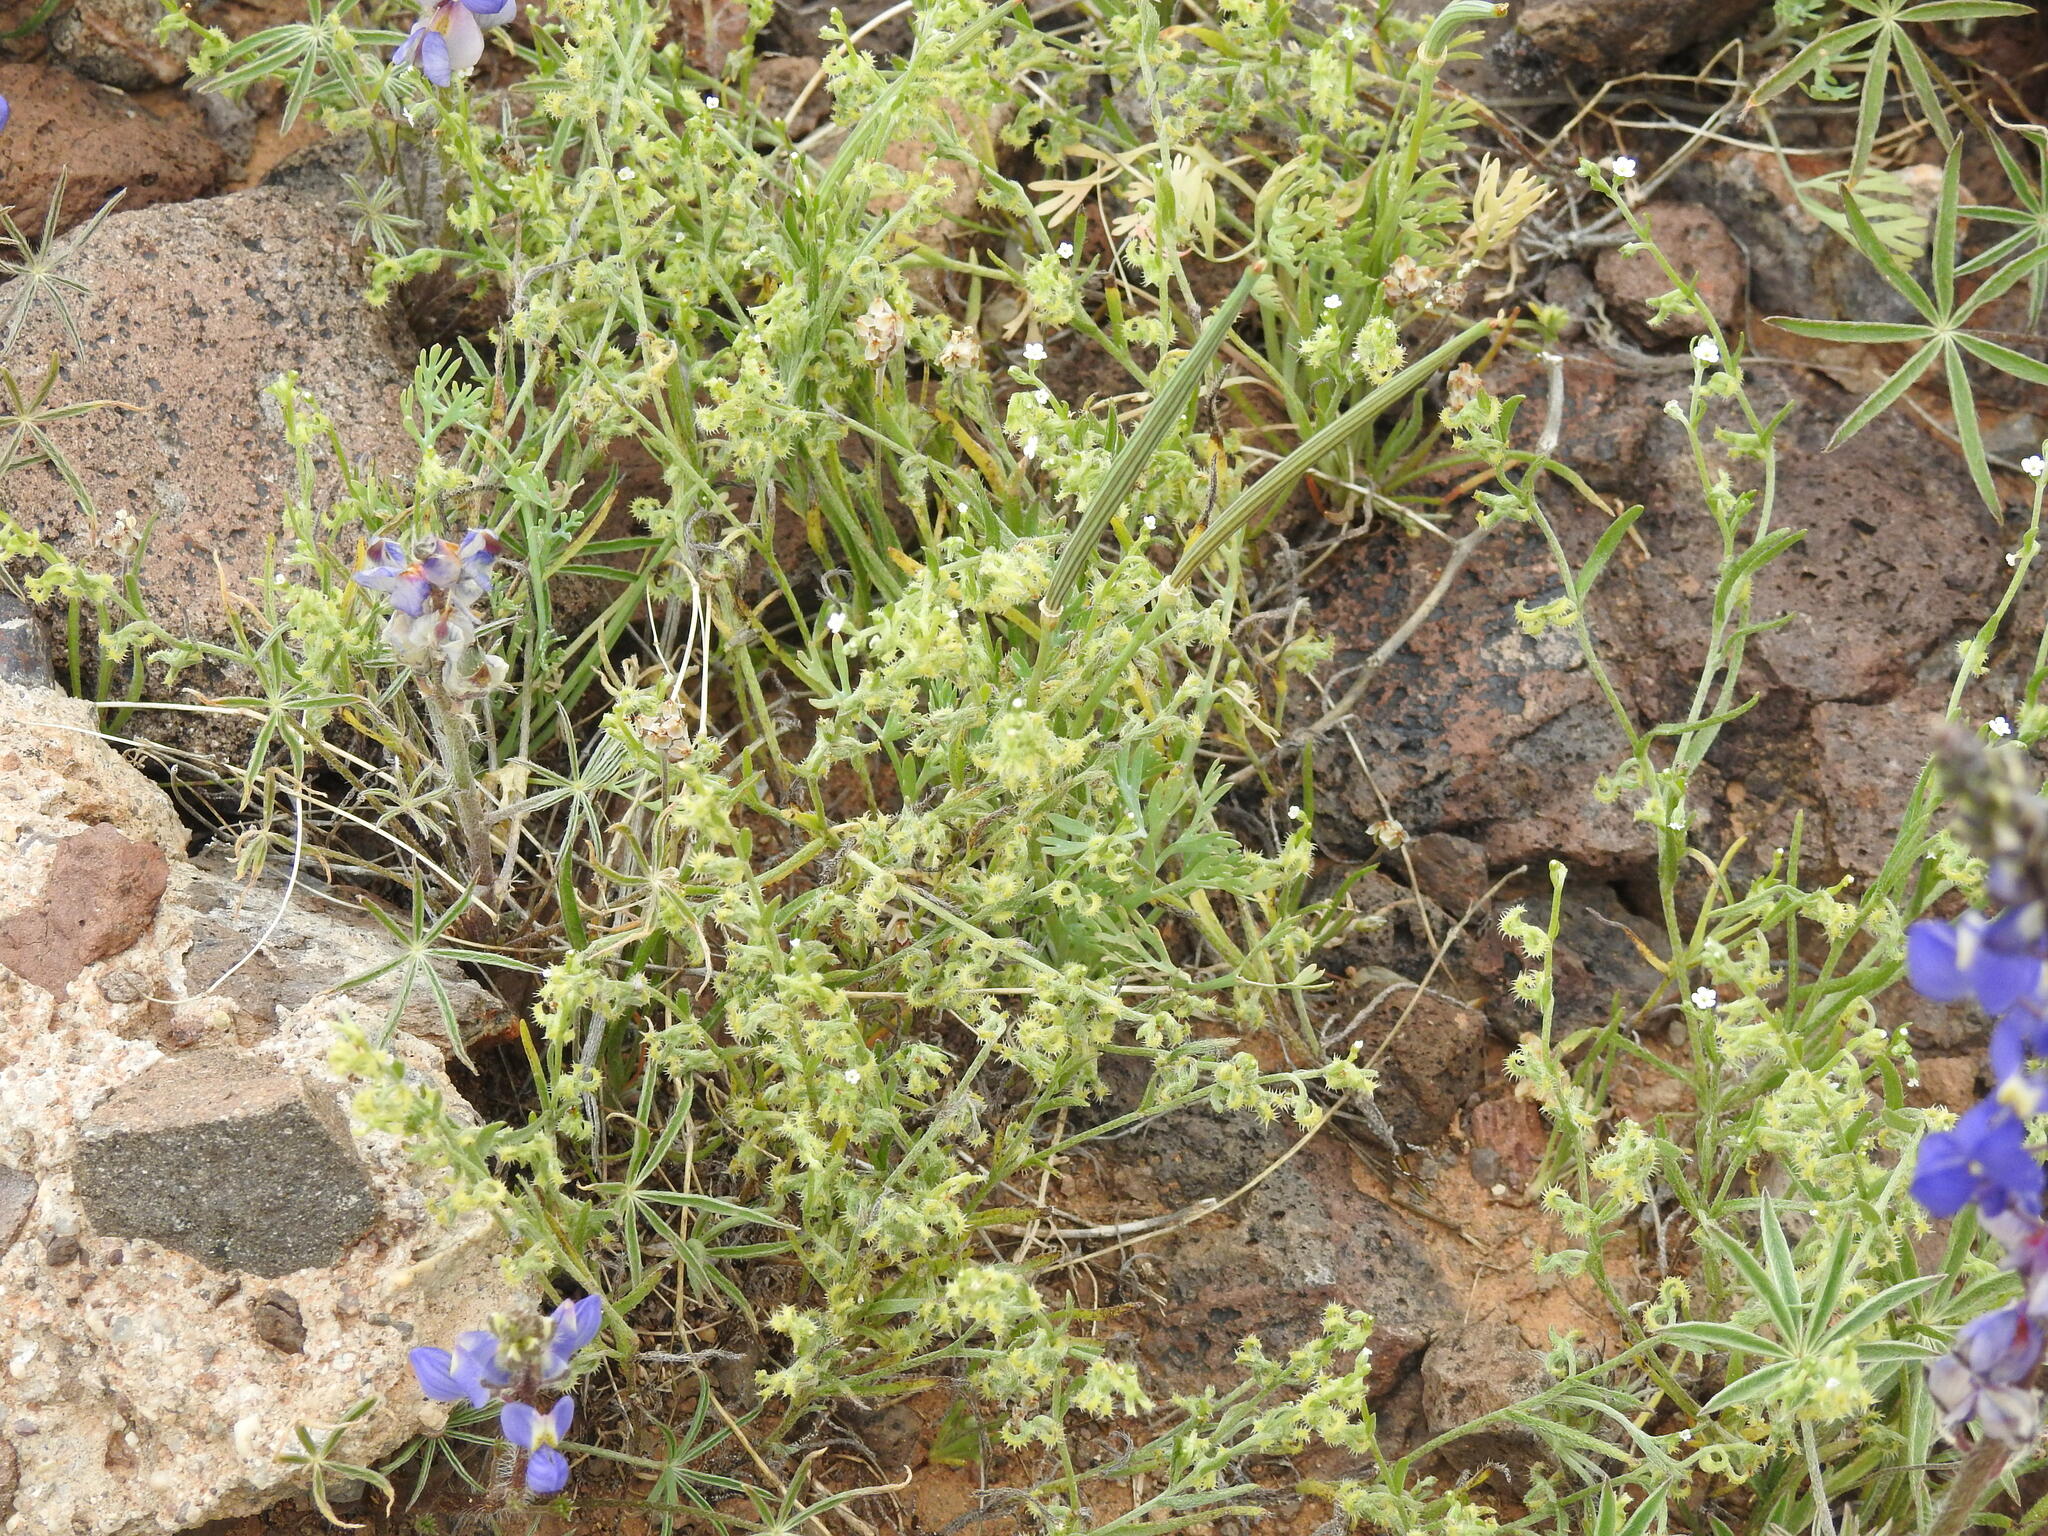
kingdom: Plantae
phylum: Tracheophyta
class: Magnoliopsida
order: Boraginales
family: Boraginaceae
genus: Pectocarya
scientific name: Pectocarya recurvata
